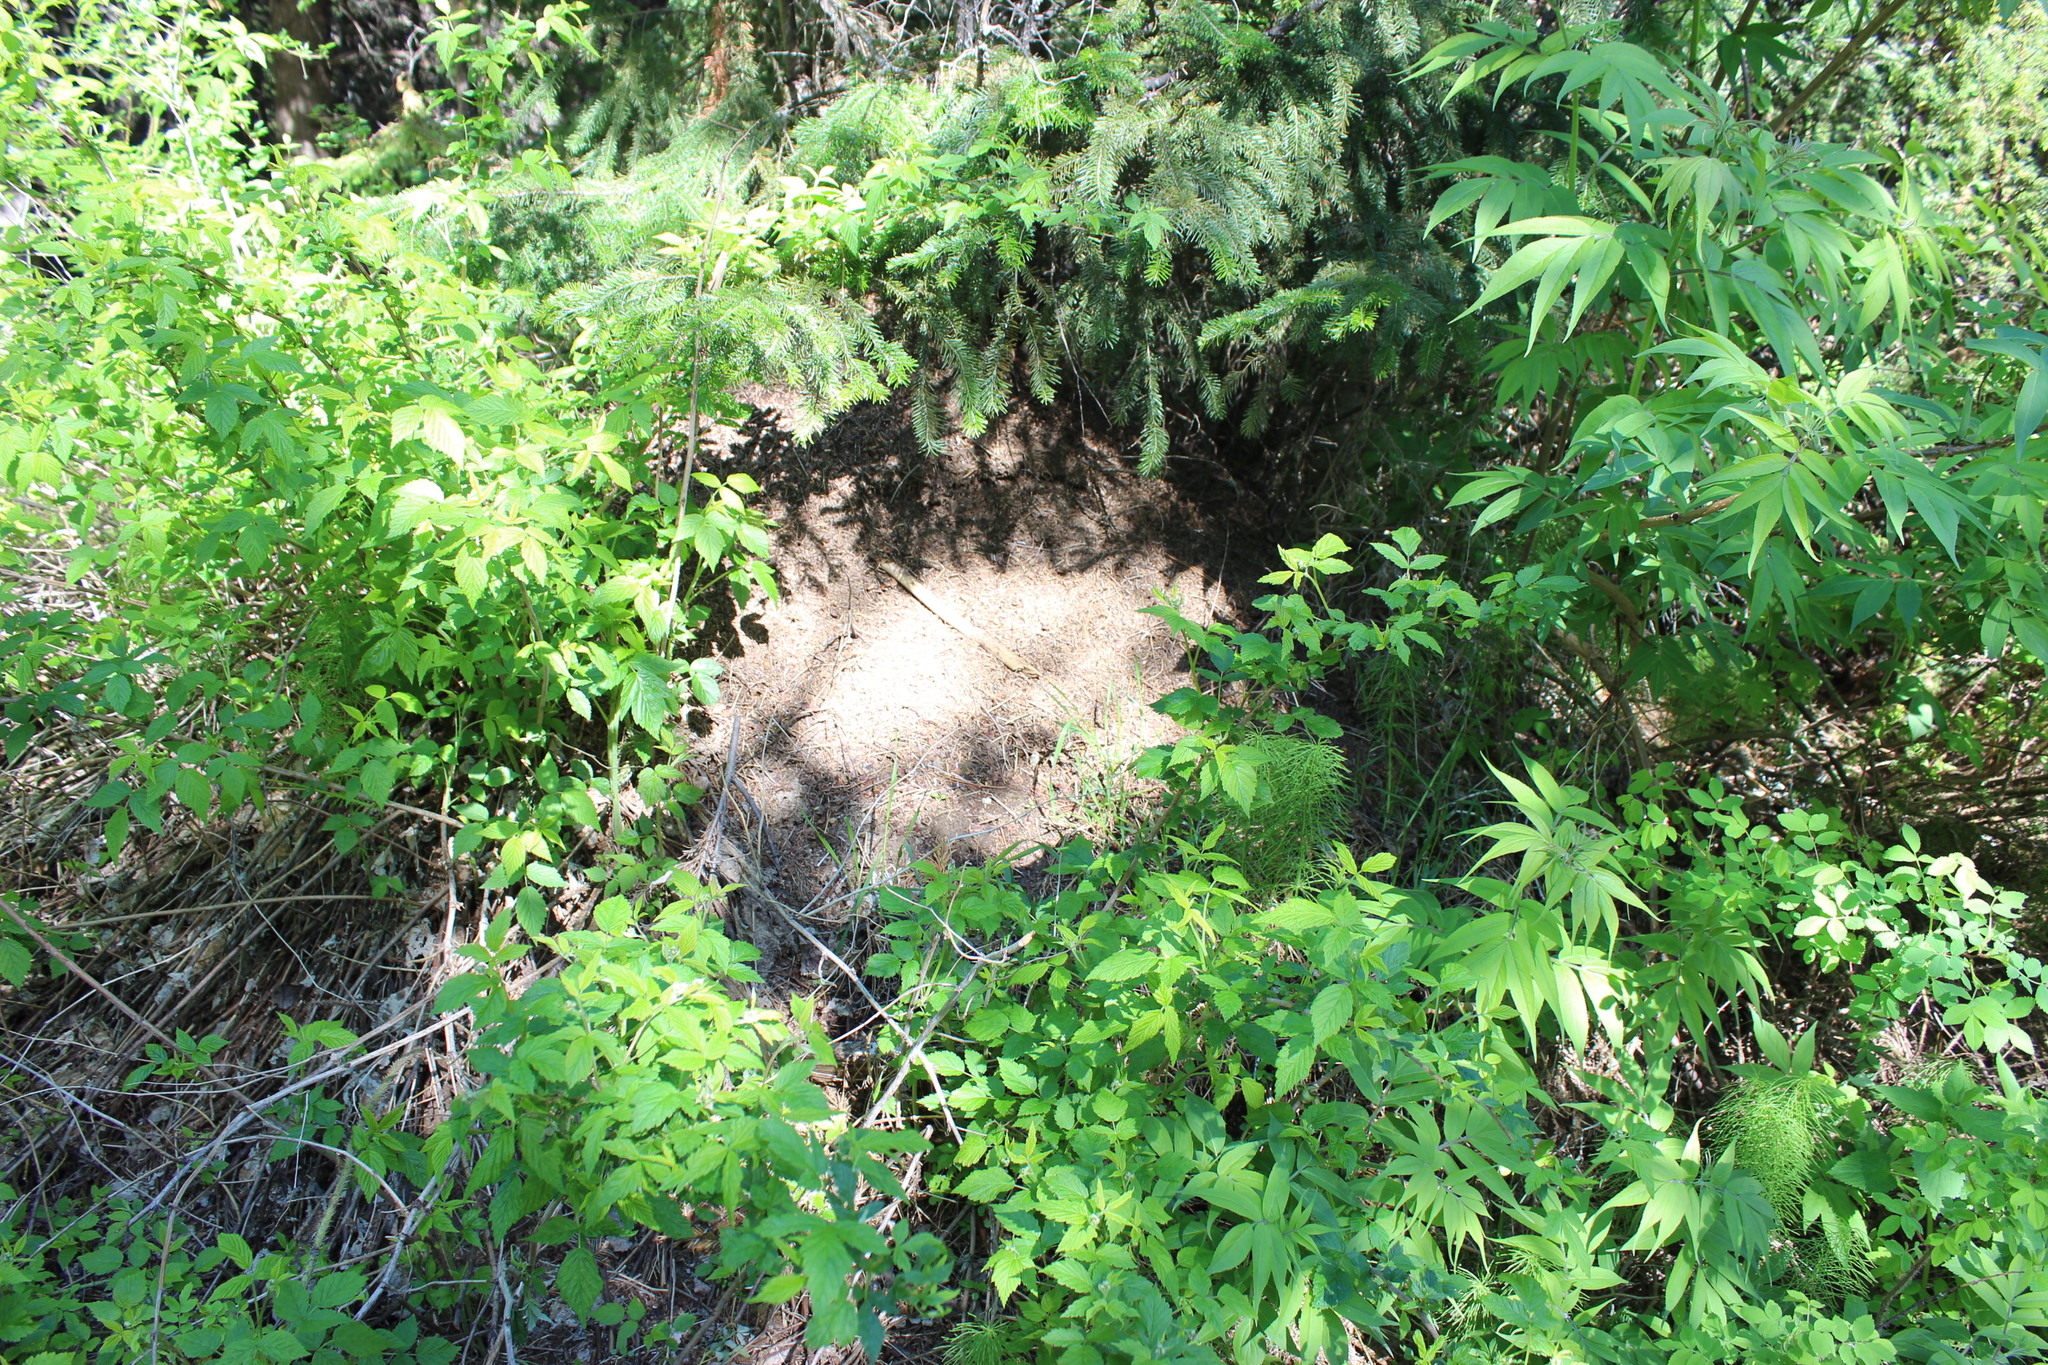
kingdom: Plantae
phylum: Tracheophyta
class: Magnoliopsida
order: Dipsacales
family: Viburnaceae
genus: Sambucus
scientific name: Sambucus sibirica
